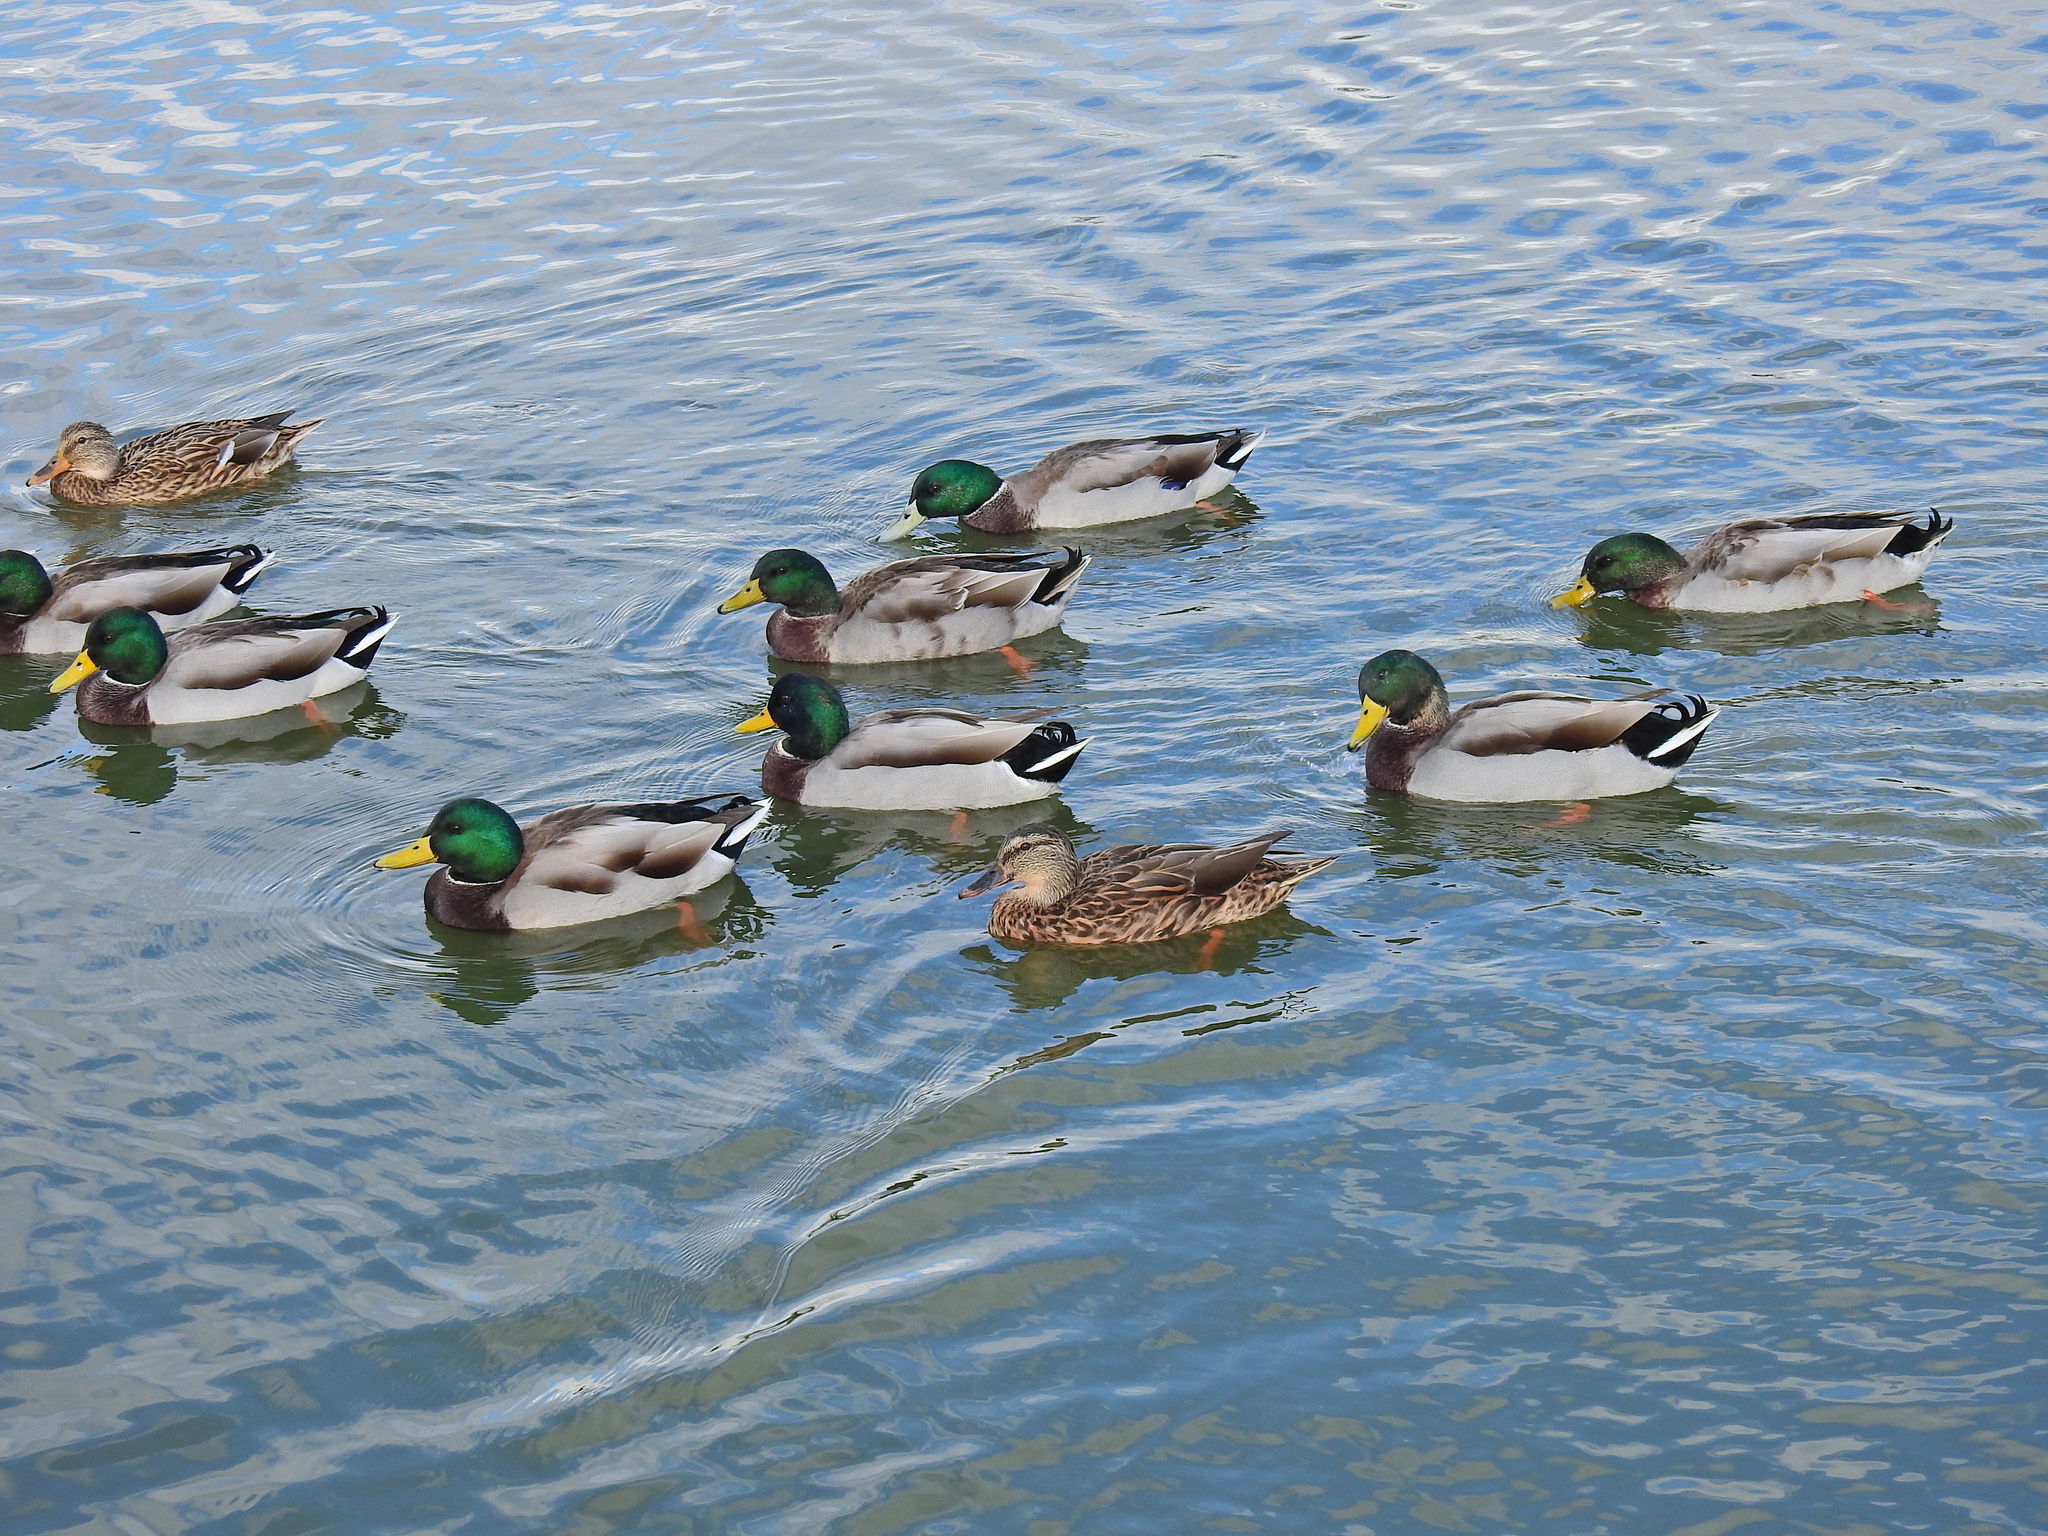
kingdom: Animalia
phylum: Chordata
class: Aves
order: Anseriformes
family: Anatidae
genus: Anas
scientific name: Anas platyrhynchos
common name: Mallard
